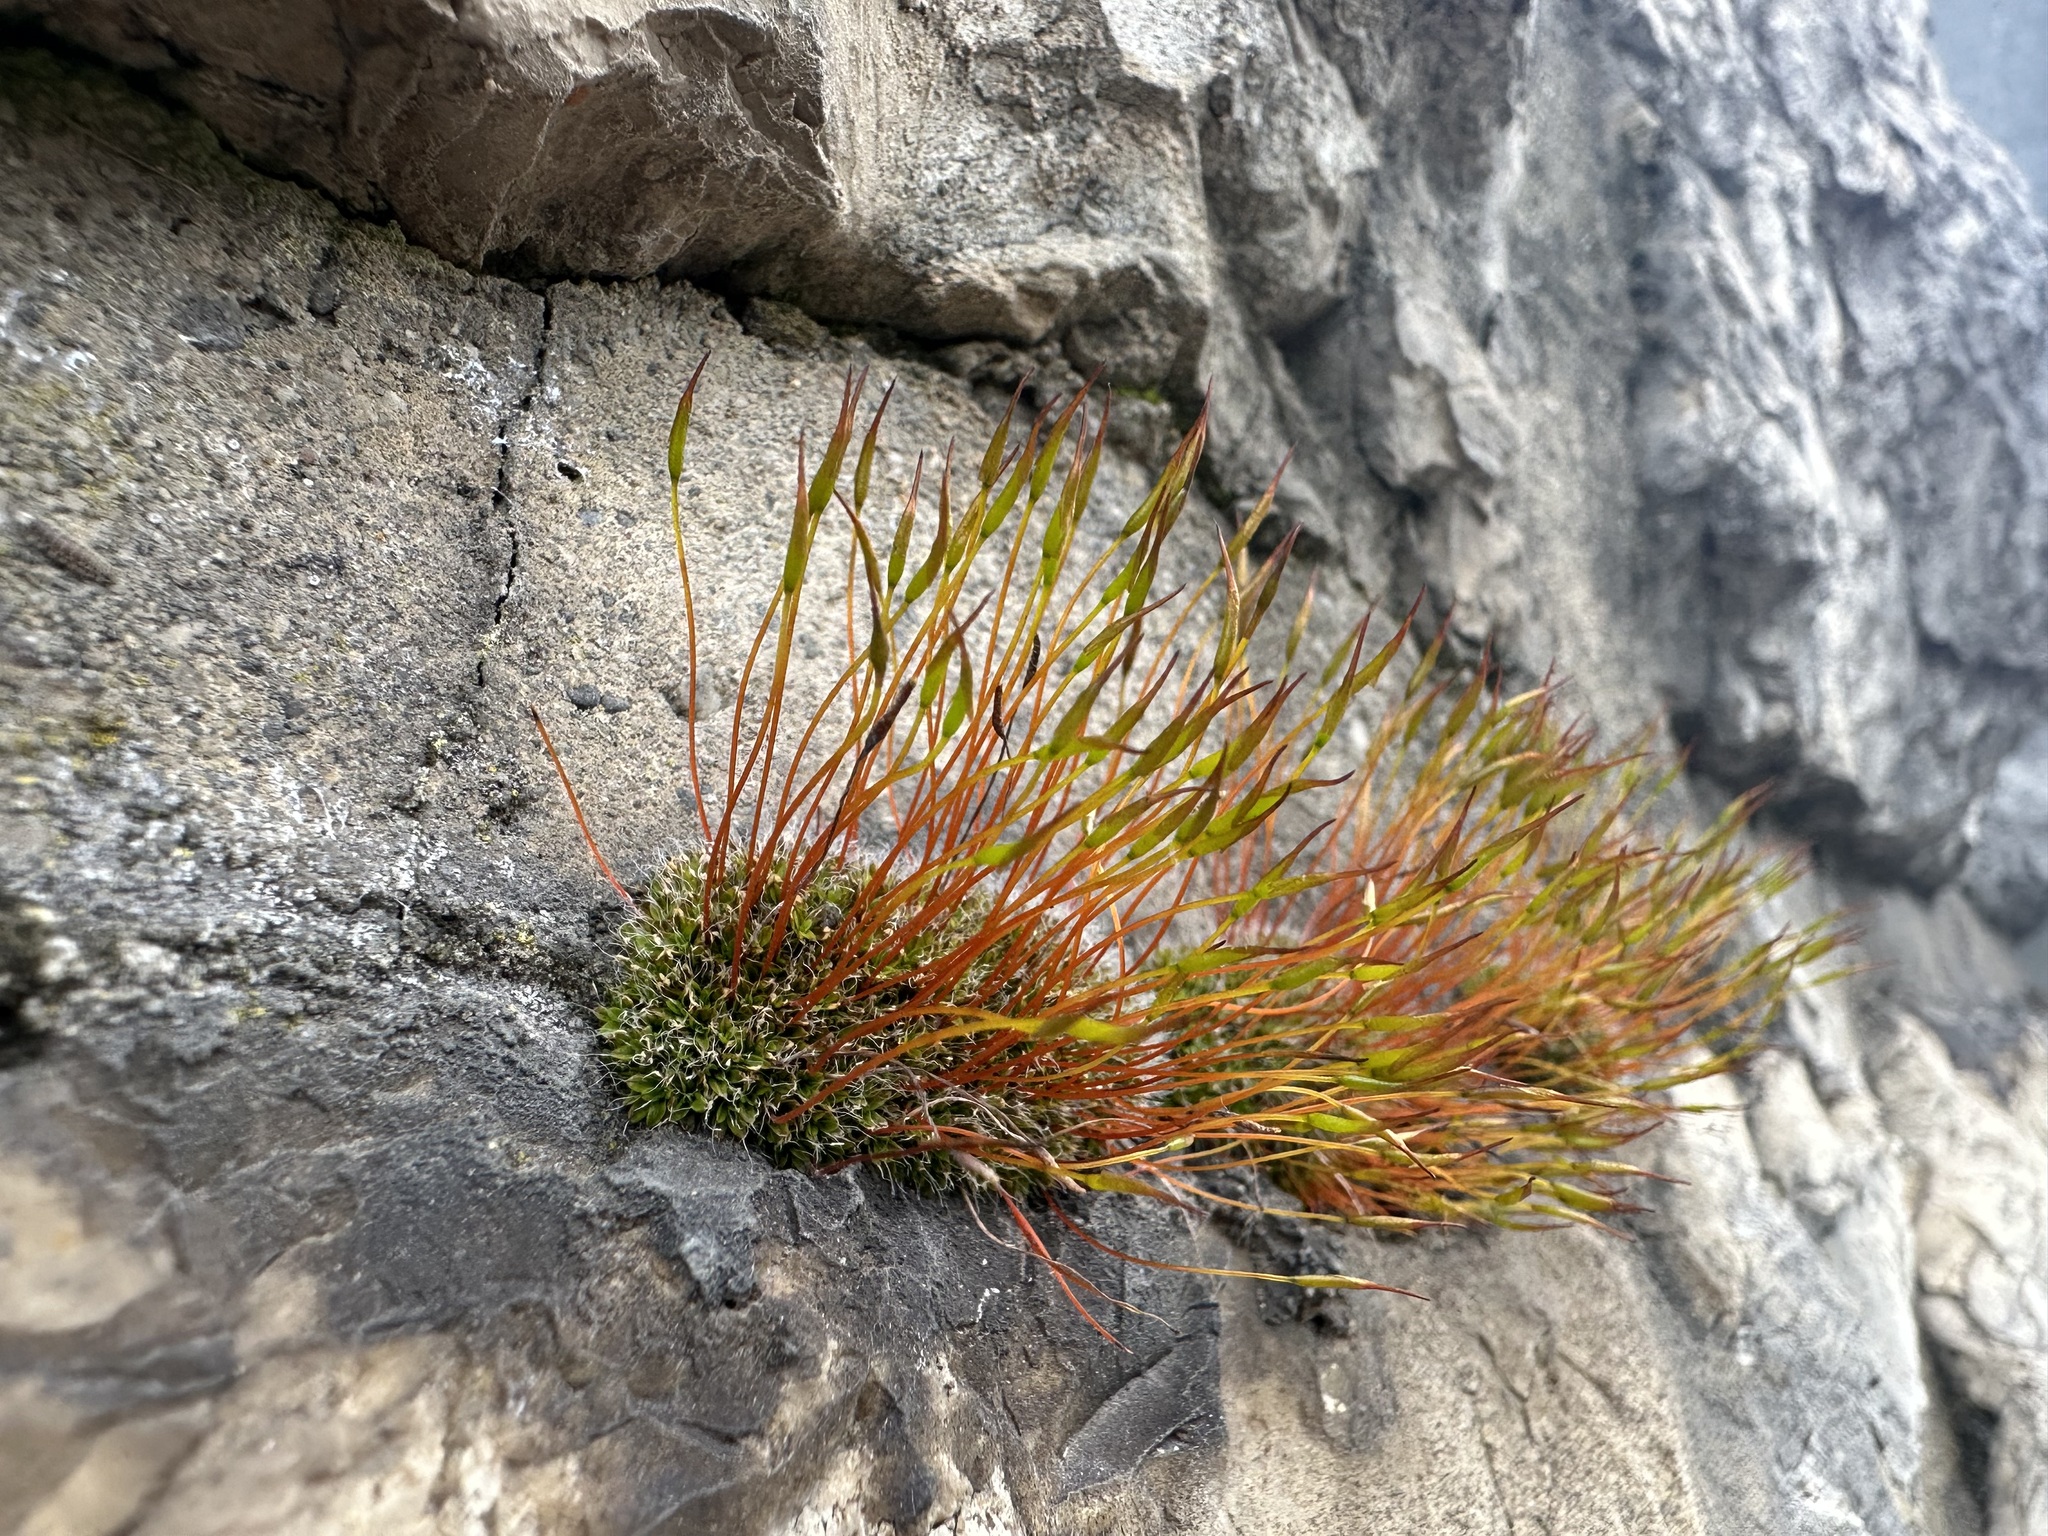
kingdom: Plantae
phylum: Bryophyta
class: Bryopsida
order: Pottiales
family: Pottiaceae
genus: Tortula
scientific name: Tortula muralis
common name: Wall screw-moss
